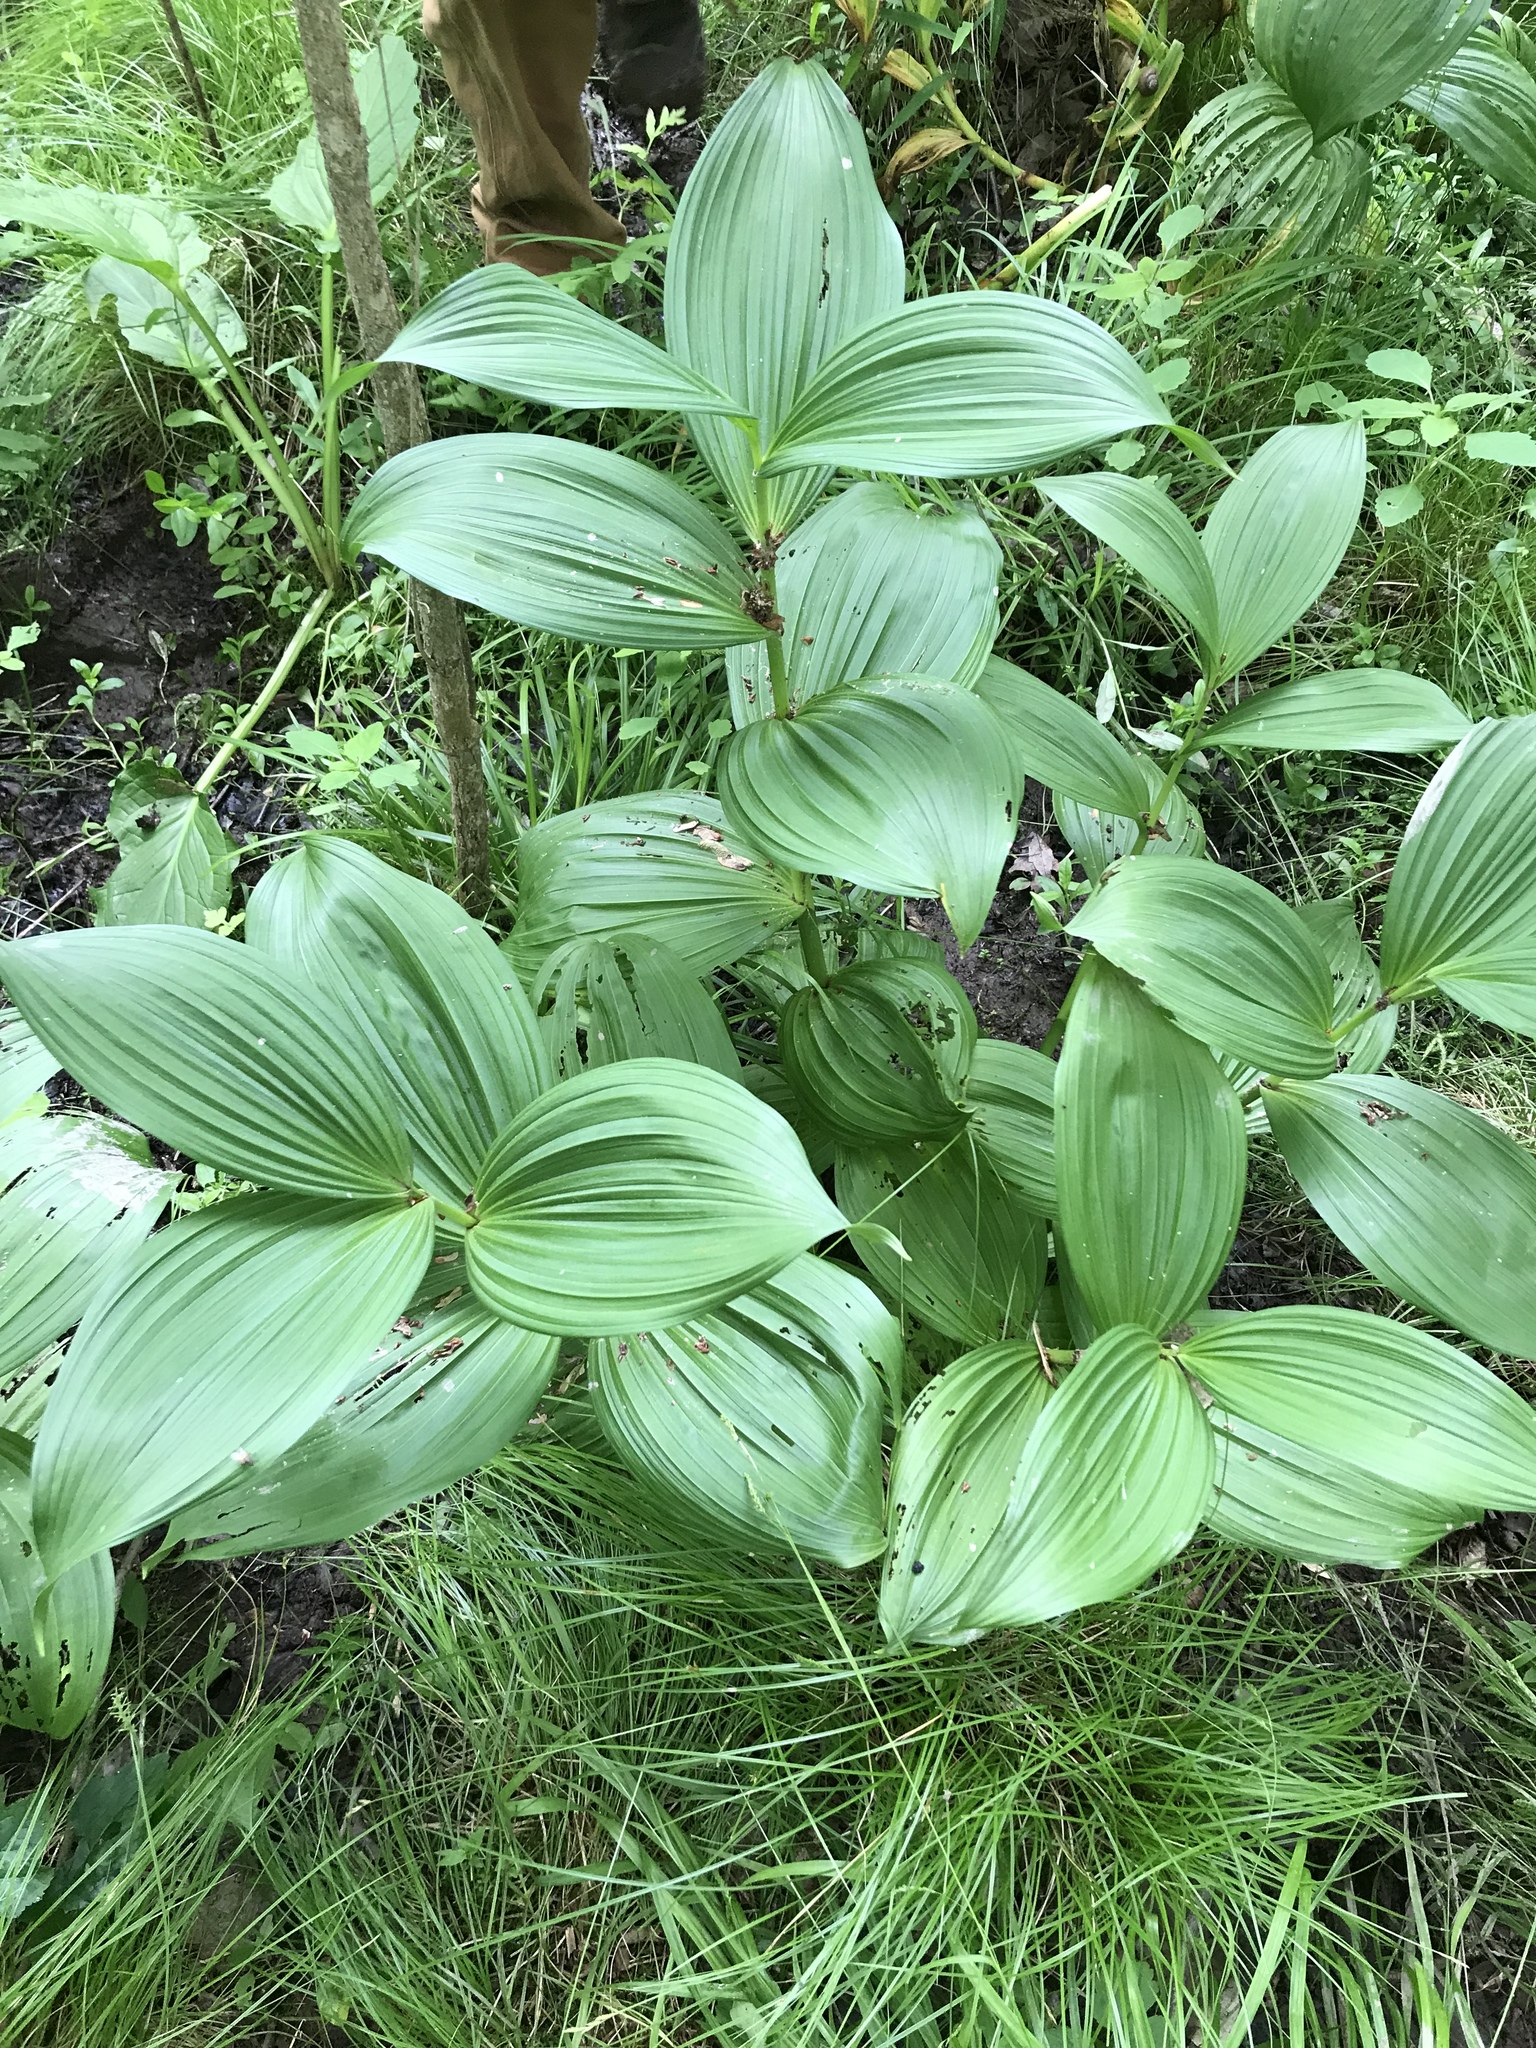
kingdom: Plantae
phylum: Tracheophyta
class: Liliopsida
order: Liliales
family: Melanthiaceae
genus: Veratrum
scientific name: Veratrum viride
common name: American false hellebore
